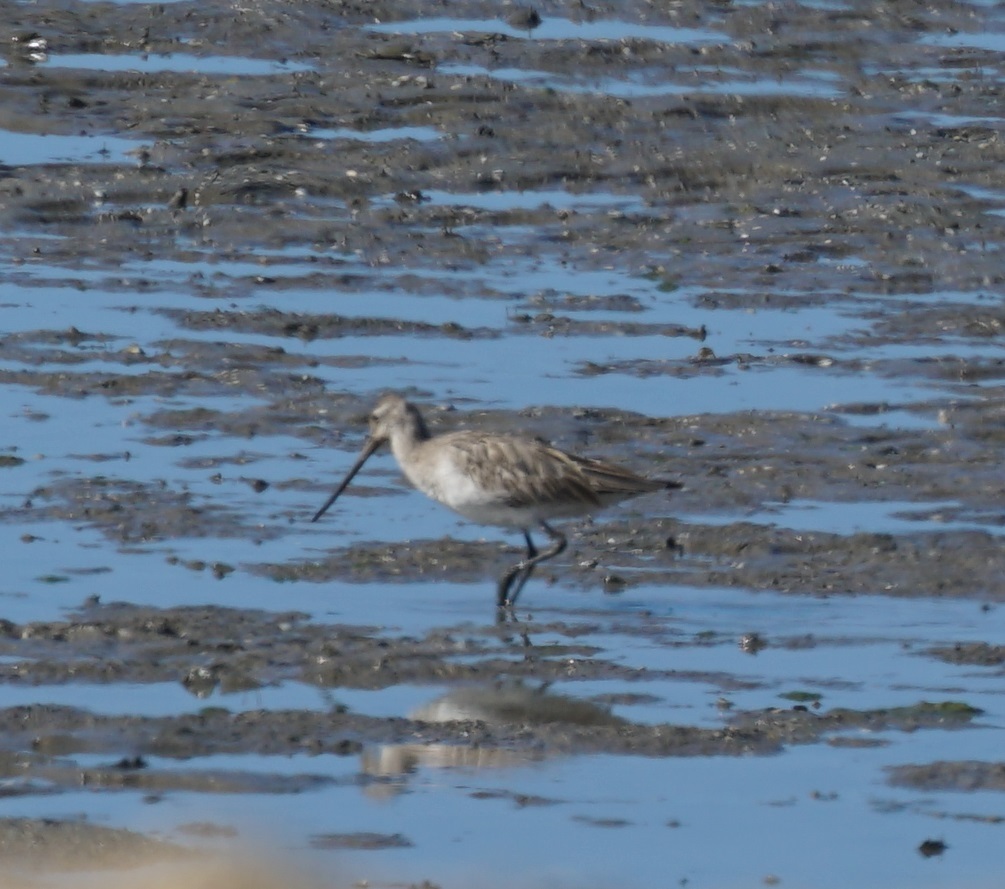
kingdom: Animalia
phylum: Chordata
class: Aves
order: Charadriiformes
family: Scolopacidae
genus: Limosa
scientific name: Limosa lapponica
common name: Bar-tailed godwit
